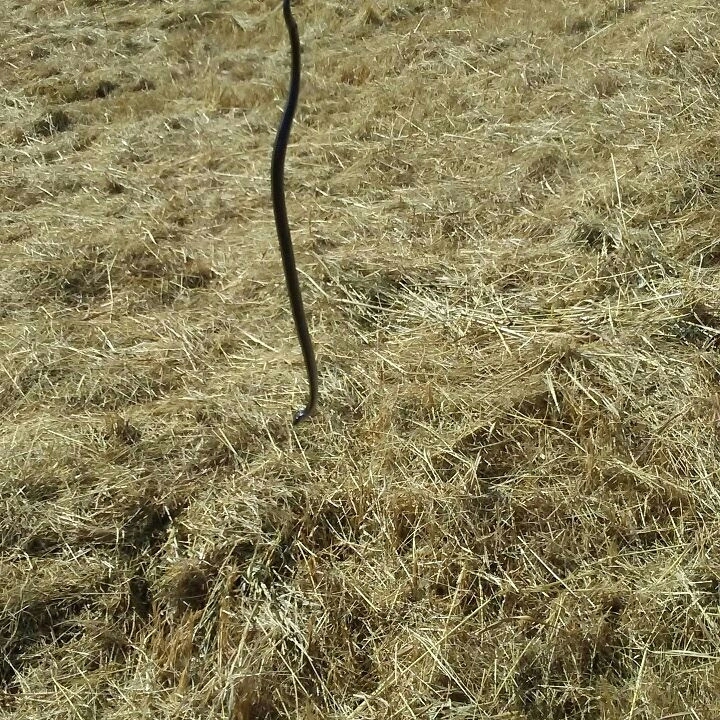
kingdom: Animalia
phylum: Chordata
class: Squamata
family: Colubridae
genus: Thamnophis
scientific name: Thamnophis sirtalis
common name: Common garter snake
